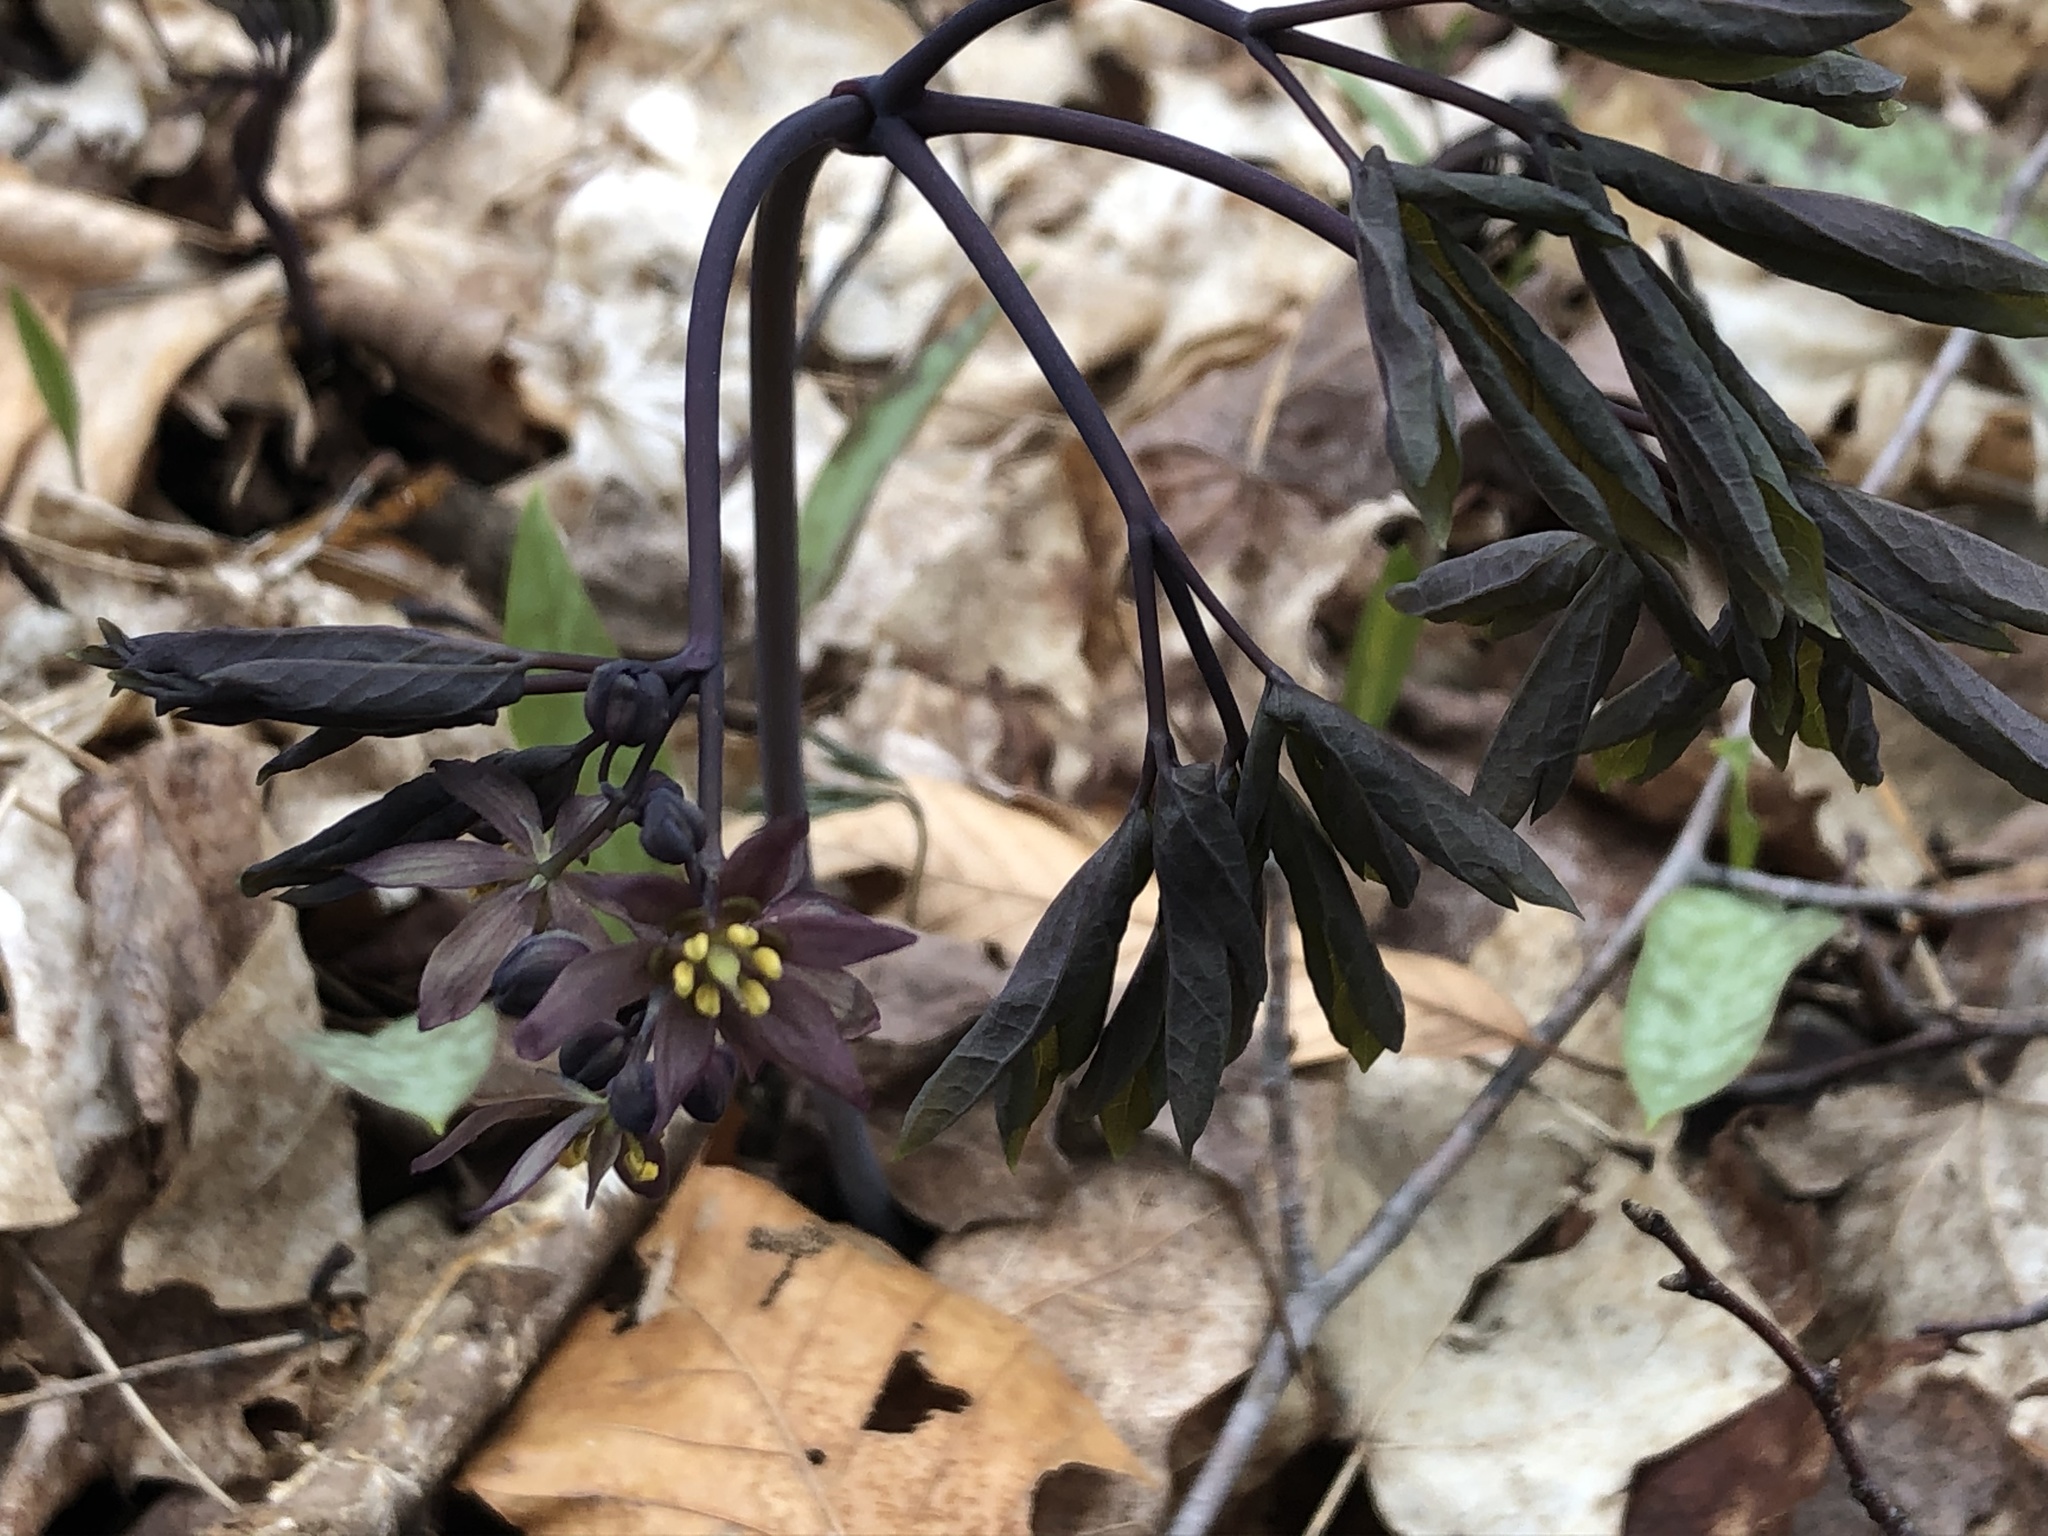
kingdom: Plantae
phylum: Tracheophyta
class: Magnoliopsida
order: Ranunculales
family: Berberidaceae
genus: Caulophyllum
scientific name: Caulophyllum giganteum
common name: Blue cohosh
